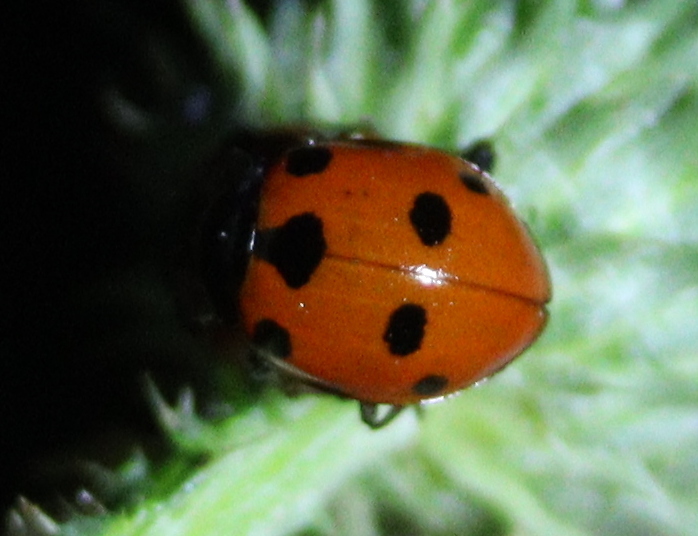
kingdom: Animalia
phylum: Arthropoda
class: Insecta
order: Coleoptera
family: Coccinellidae
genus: Ceratomegilla
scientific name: Ceratomegilla undecimnotata
